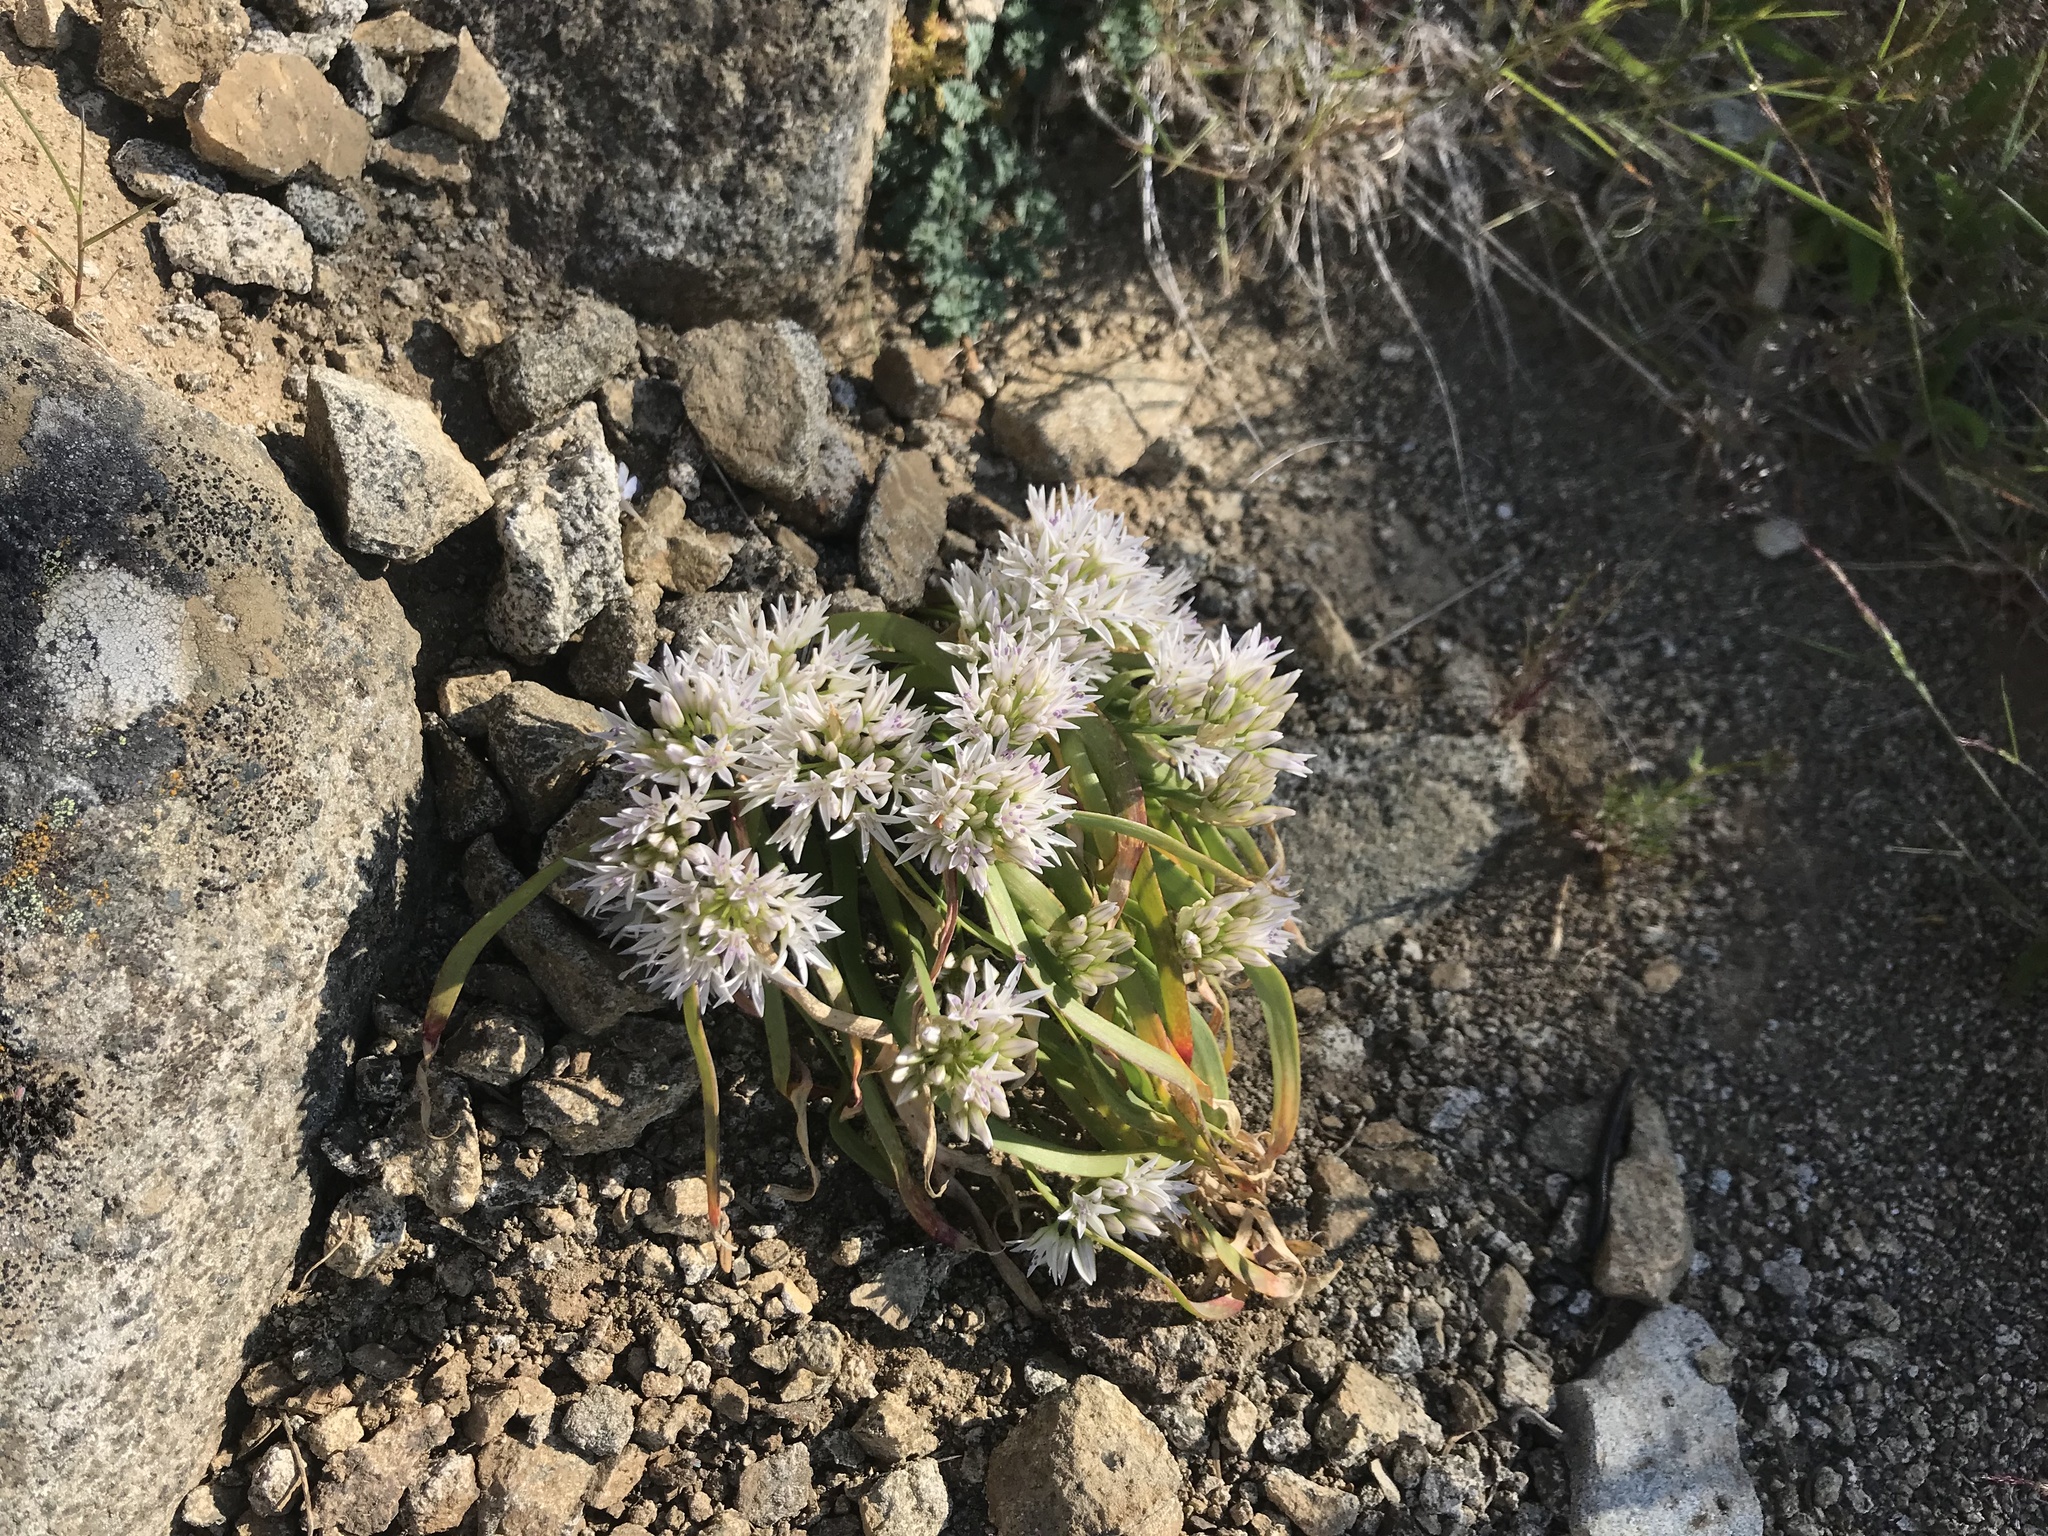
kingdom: Plantae
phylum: Tracheophyta
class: Liliopsida
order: Asparagales
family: Amaryllidaceae
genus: Allium
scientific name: Allium crenulatum
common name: Olympic onion
